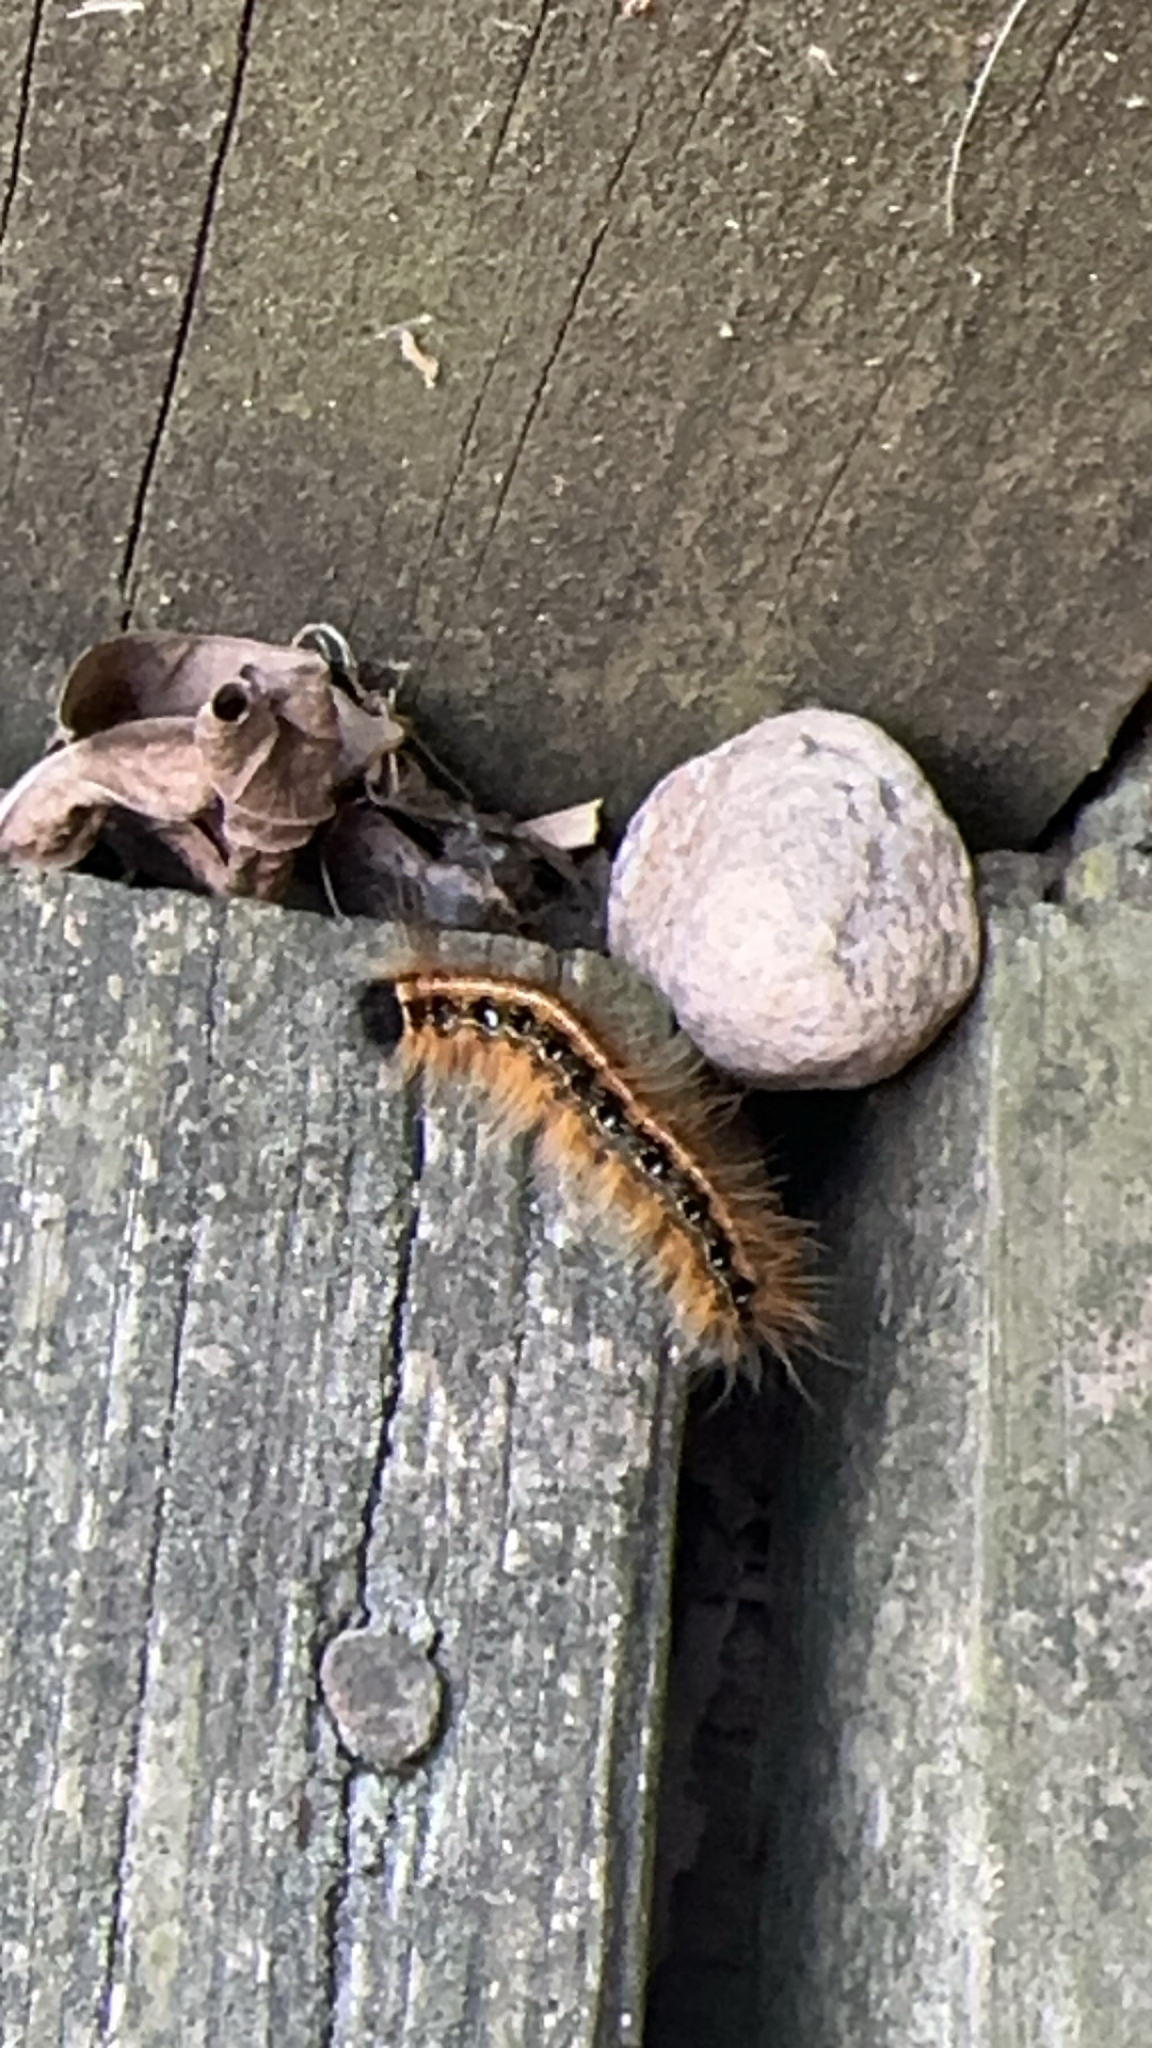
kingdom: Animalia
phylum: Arthropoda
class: Insecta
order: Lepidoptera
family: Lasiocampidae
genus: Malacosoma
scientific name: Malacosoma americana
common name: Eastern tent caterpillar moth
